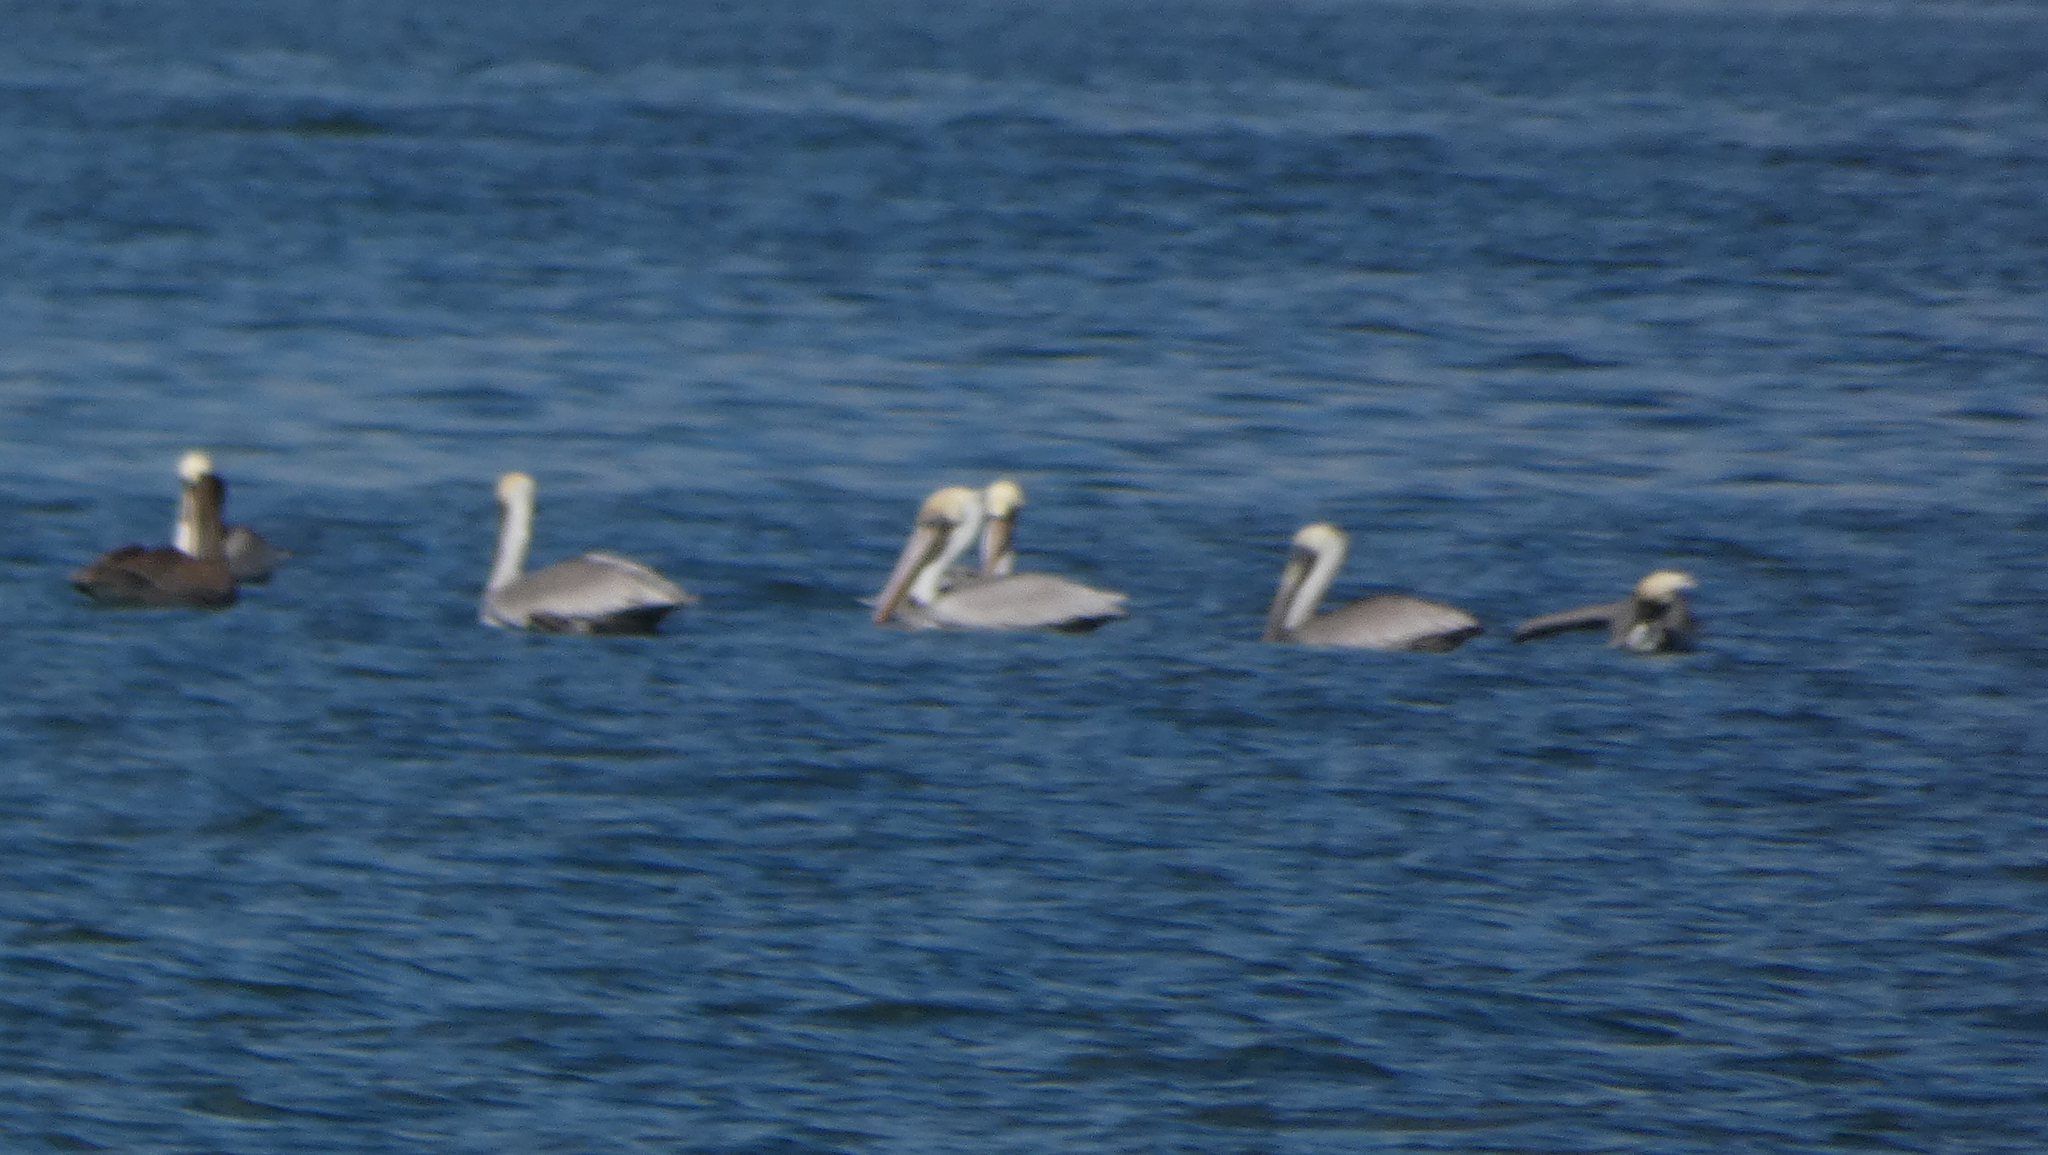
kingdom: Animalia
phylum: Chordata
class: Aves
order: Pelecaniformes
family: Pelecanidae
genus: Pelecanus
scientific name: Pelecanus occidentalis
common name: Brown pelican
